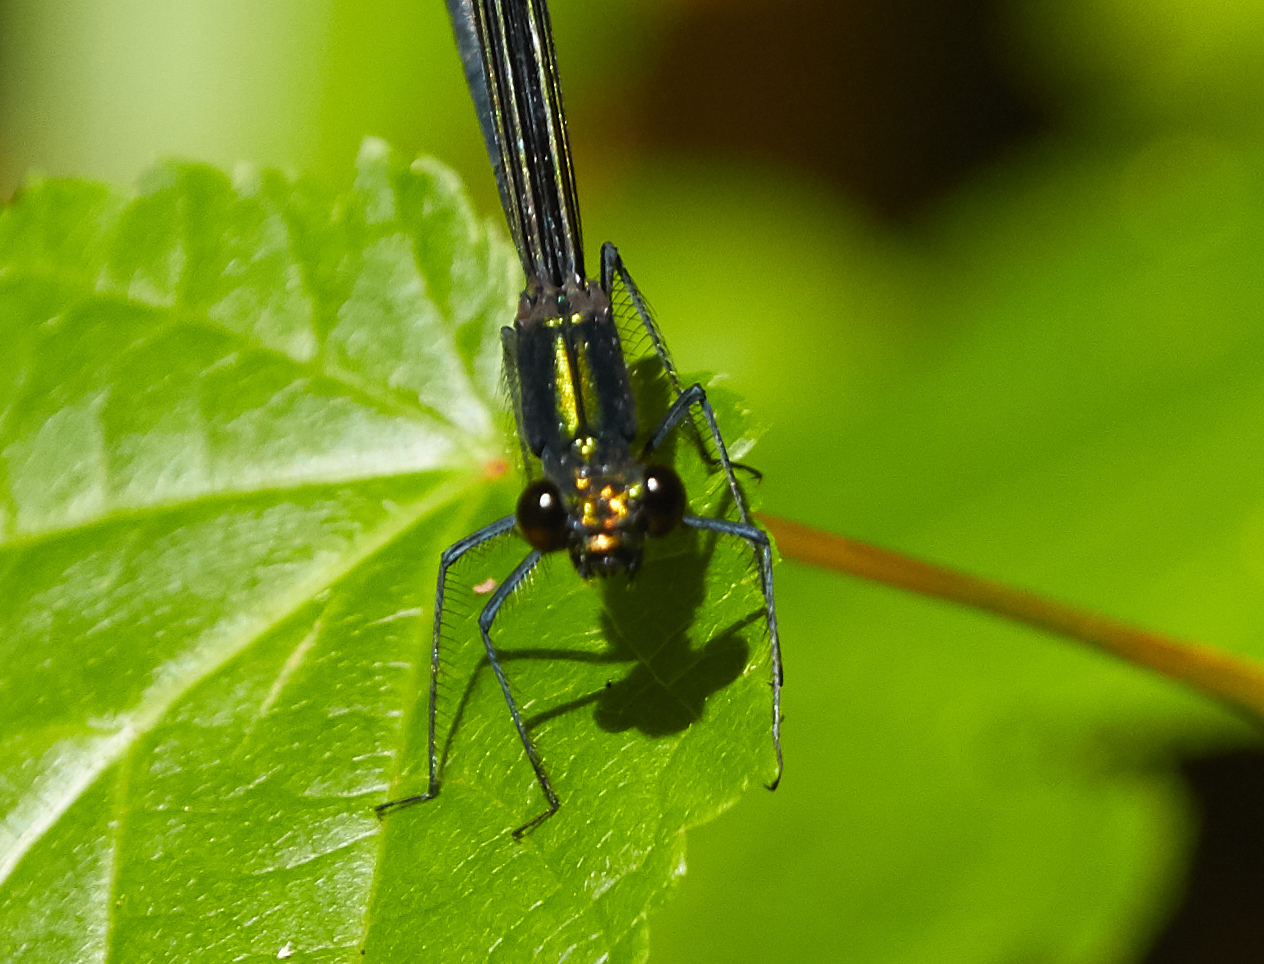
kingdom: Animalia
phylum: Arthropoda
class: Insecta
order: Odonata
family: Calopterygidae
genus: Calopteryx
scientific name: Calopteryx maculata
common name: Ebony jewelwing
